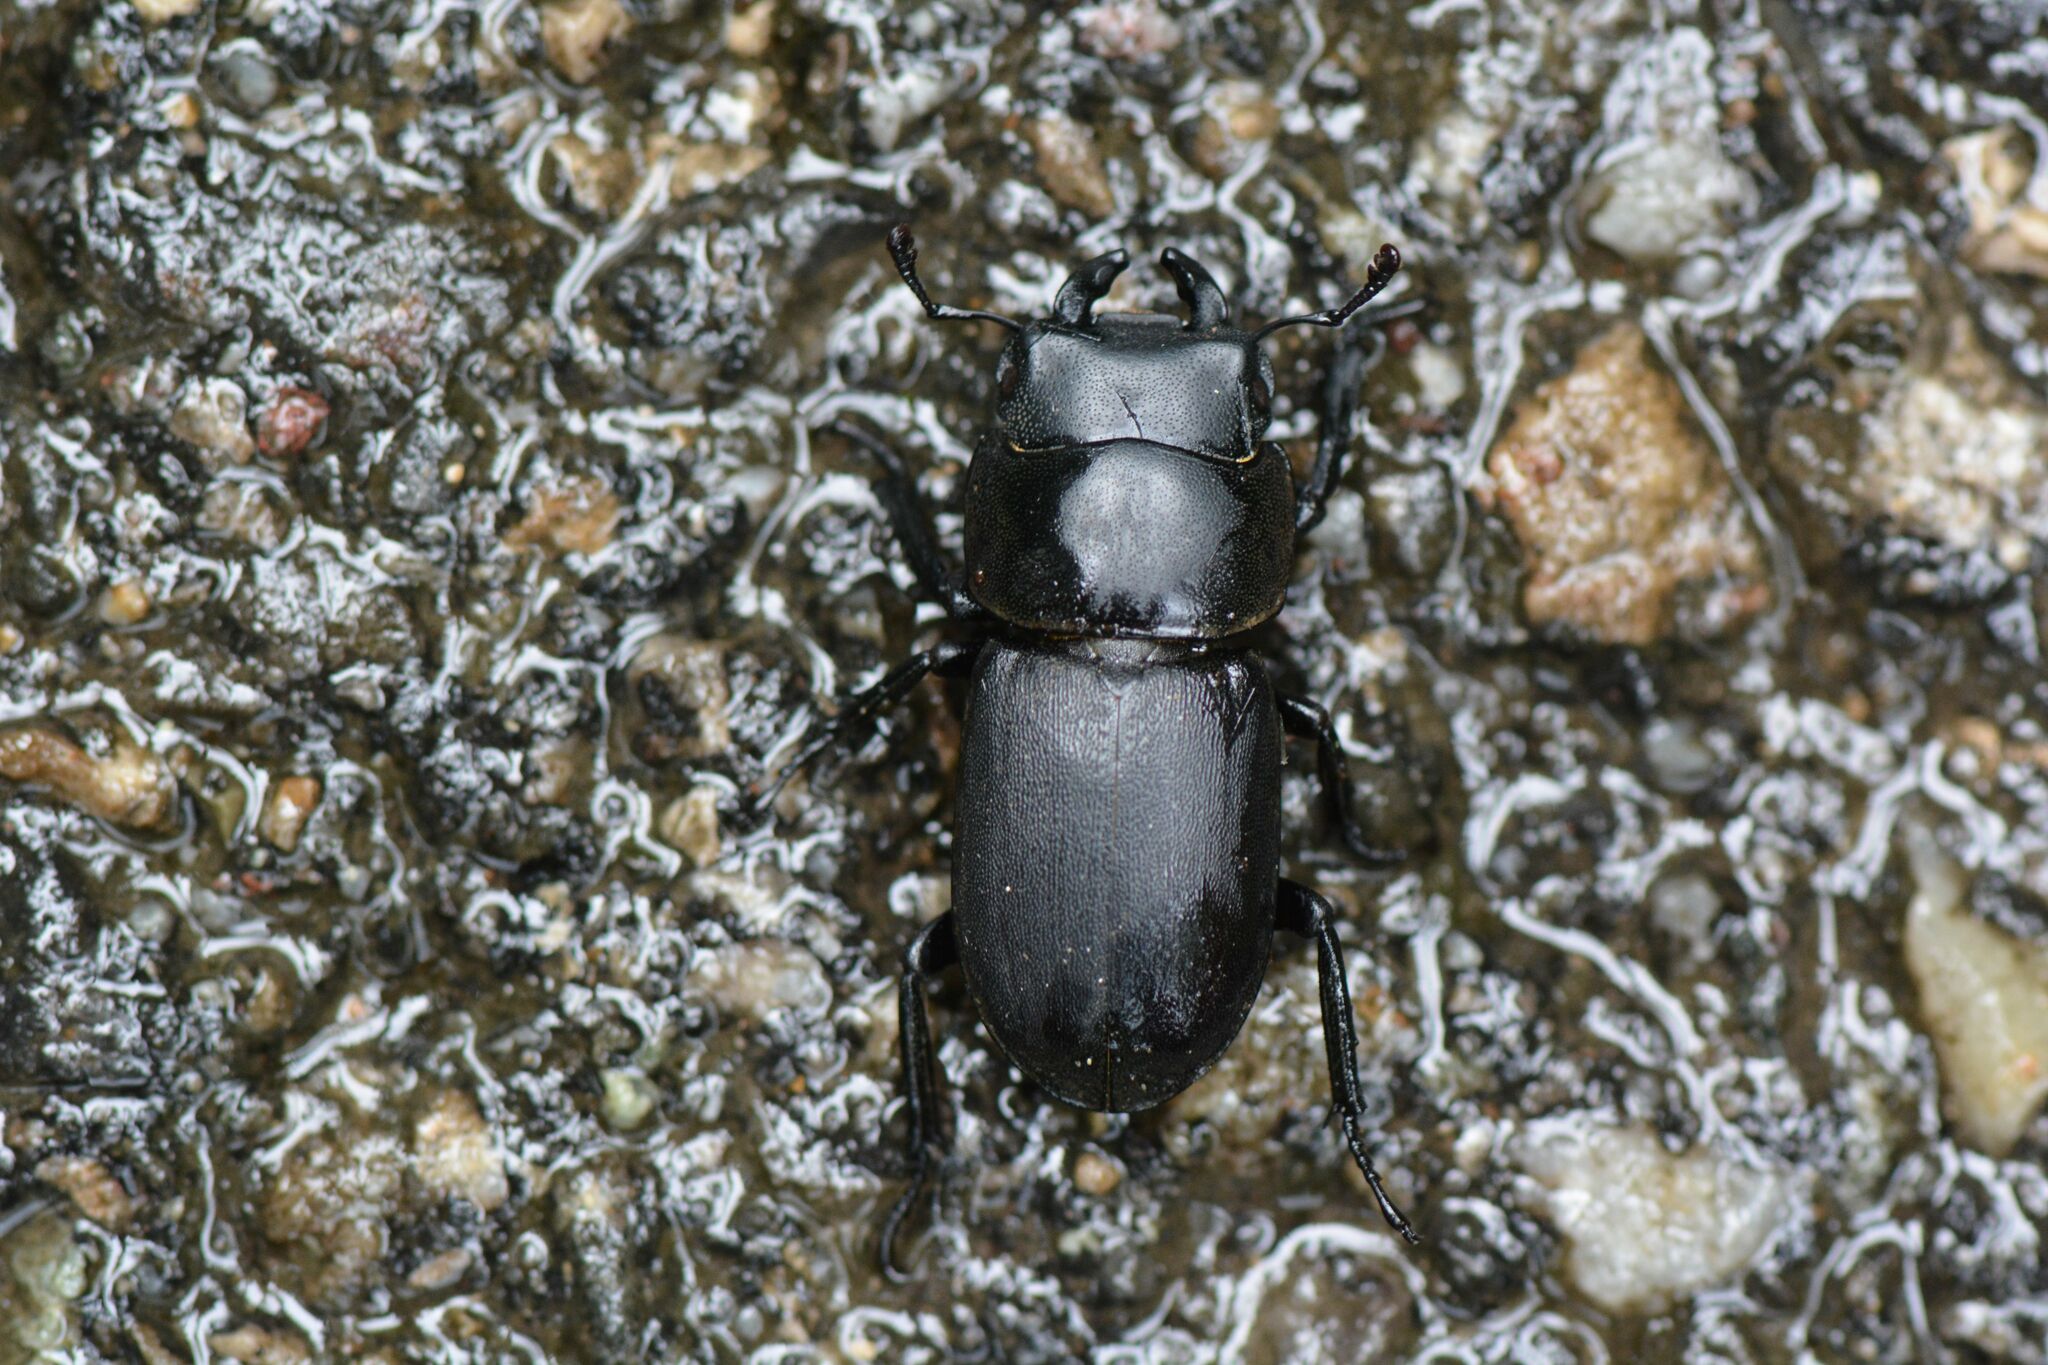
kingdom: Animalia
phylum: Arthropoda
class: Insecta
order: Coleoptera
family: Lucanidae
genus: Dorcus
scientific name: Dorcus parallelipipedus
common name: Lesser stag beetle
